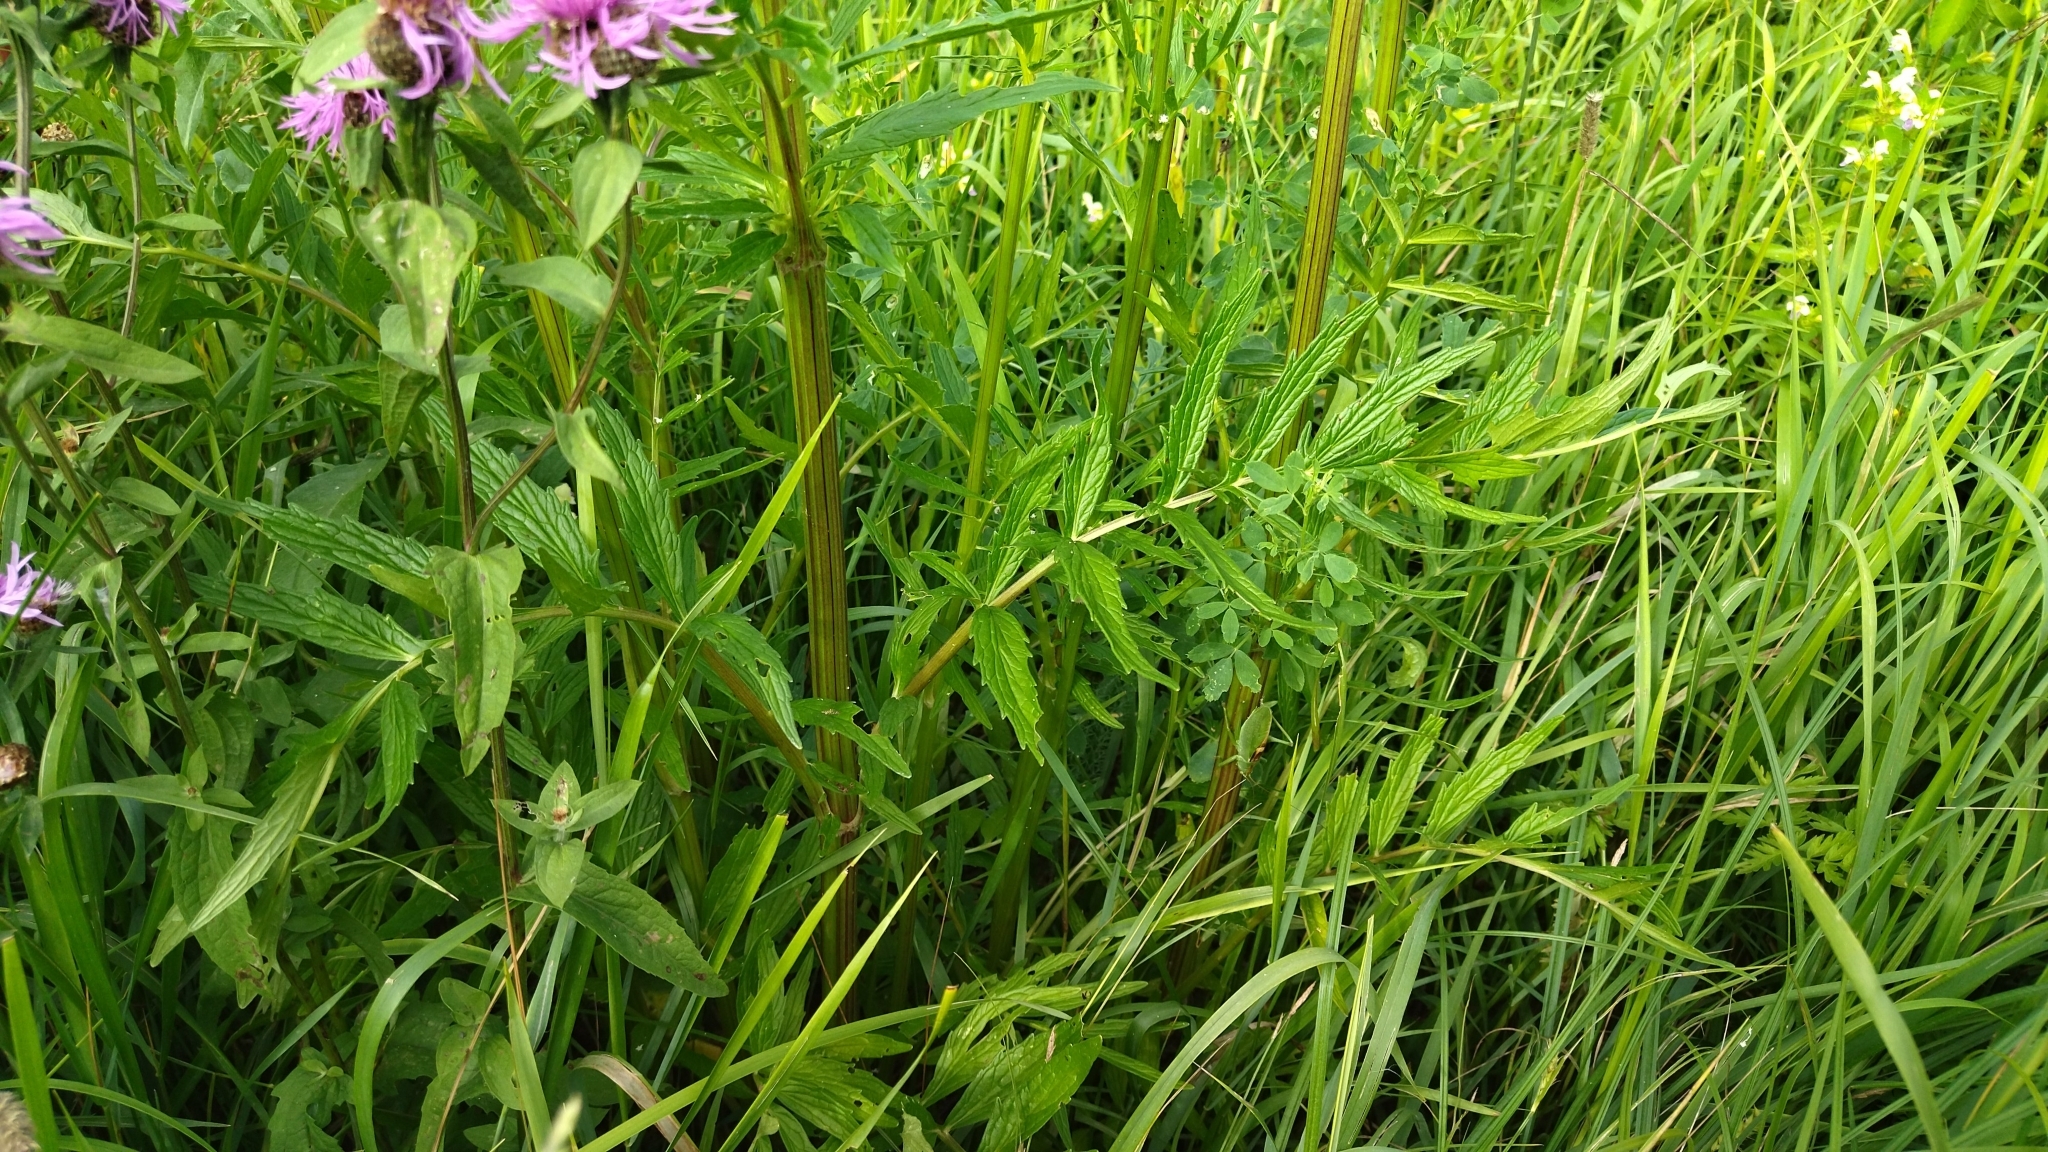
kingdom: Plantae
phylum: Tracheophyta
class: Magnoliopsida
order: Dipsacales
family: Caprifoliaceae
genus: Valeriana
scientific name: Valeriana officinalis
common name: Common valerian
